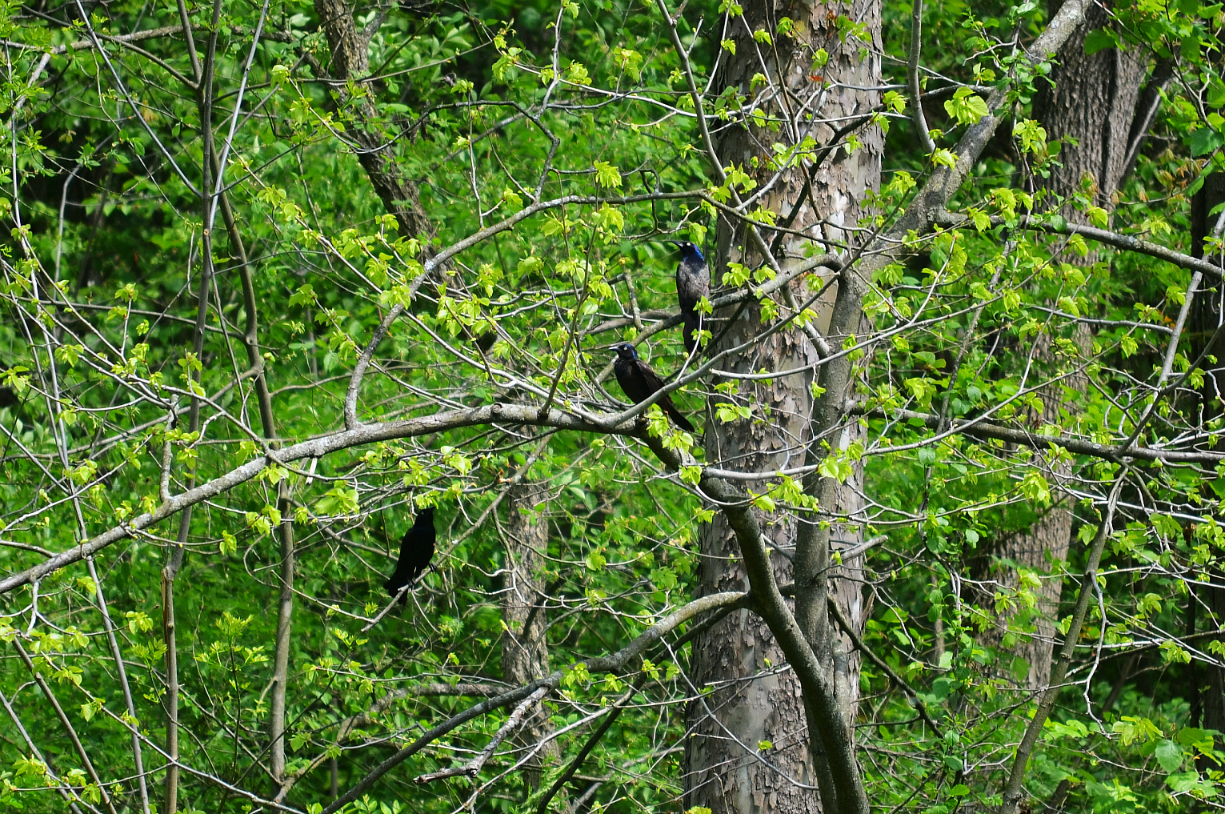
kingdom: Animalia
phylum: Chordata
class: Aves
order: Passeriformes
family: Icteridae
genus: Quiscalus
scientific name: Quiscalus quiscula
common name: Common grackle
